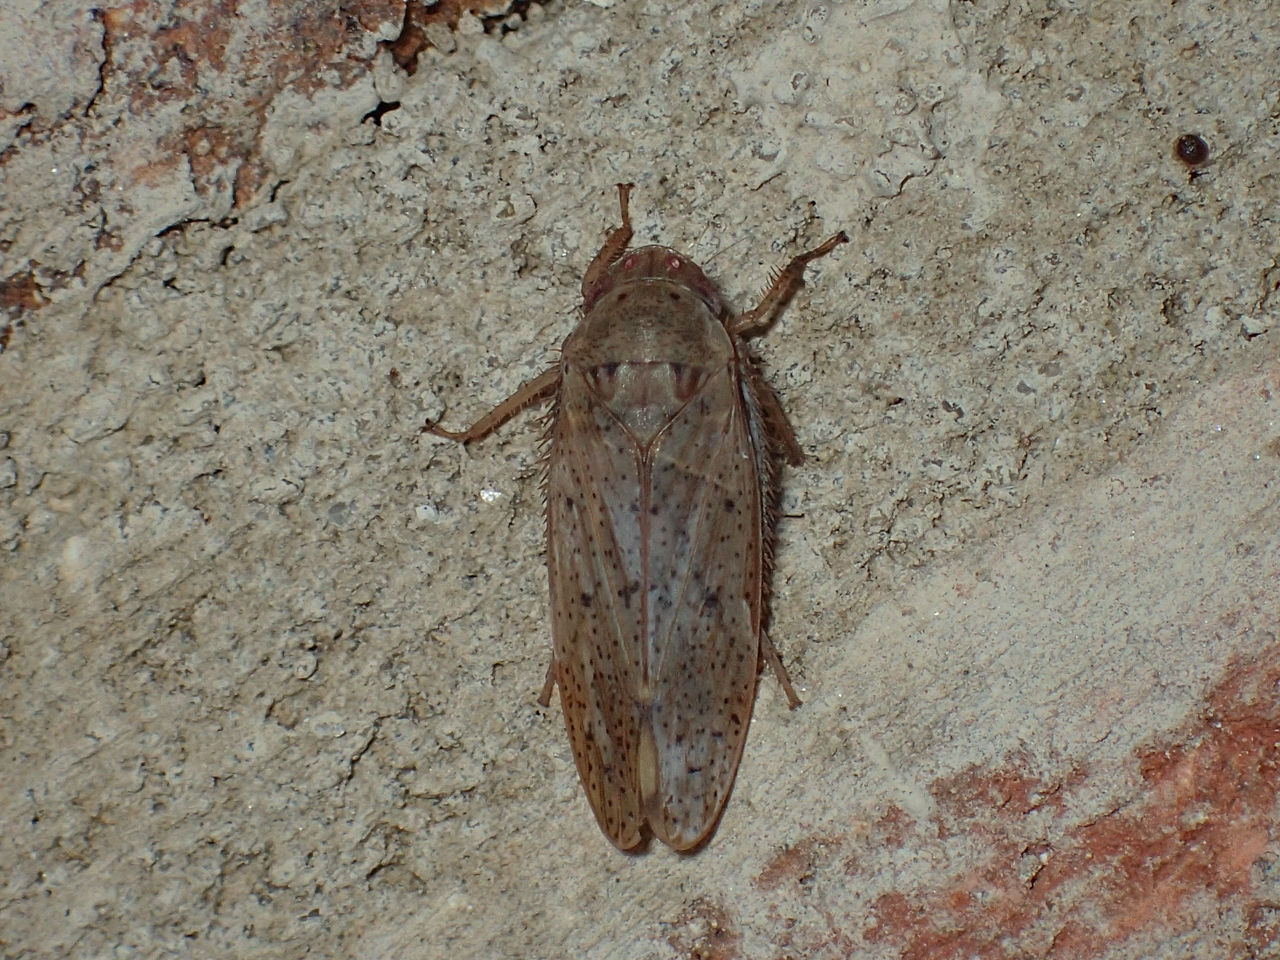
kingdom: Animalia
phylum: Arthropoda
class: Insecta
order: Hemiptera
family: Cicadellidae
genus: Ponana
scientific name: Ponana puncticollis
